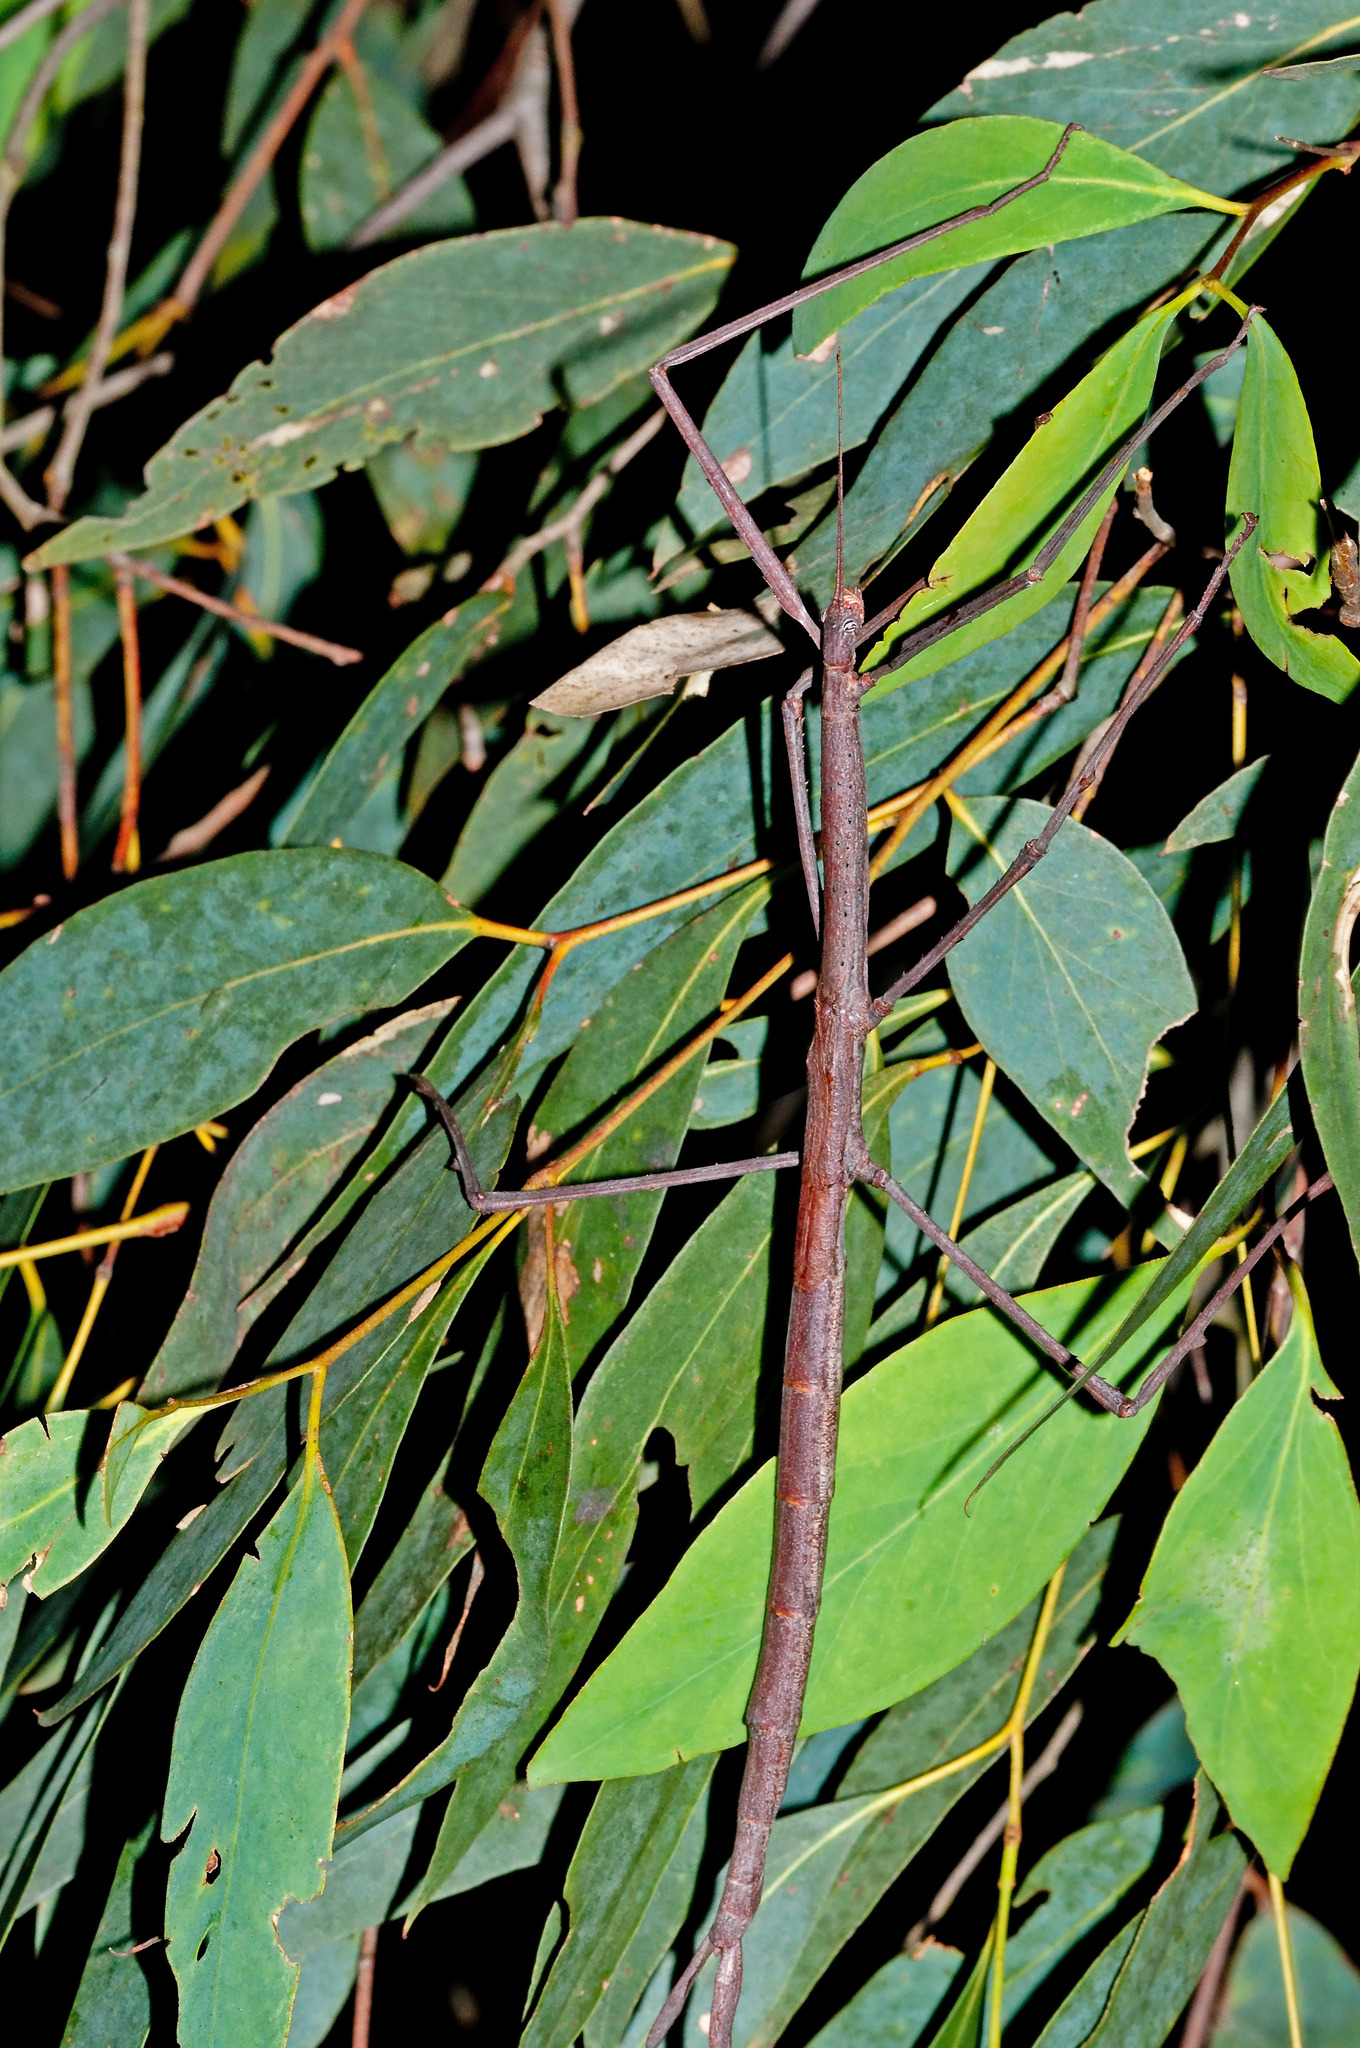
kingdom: Animalia
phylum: Arthropoda
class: Insecta
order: Phasmida
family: Phasmatidae
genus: Ctenomorpha
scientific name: Ctenomorpha marginipennis
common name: Margined-winged stick-insect
